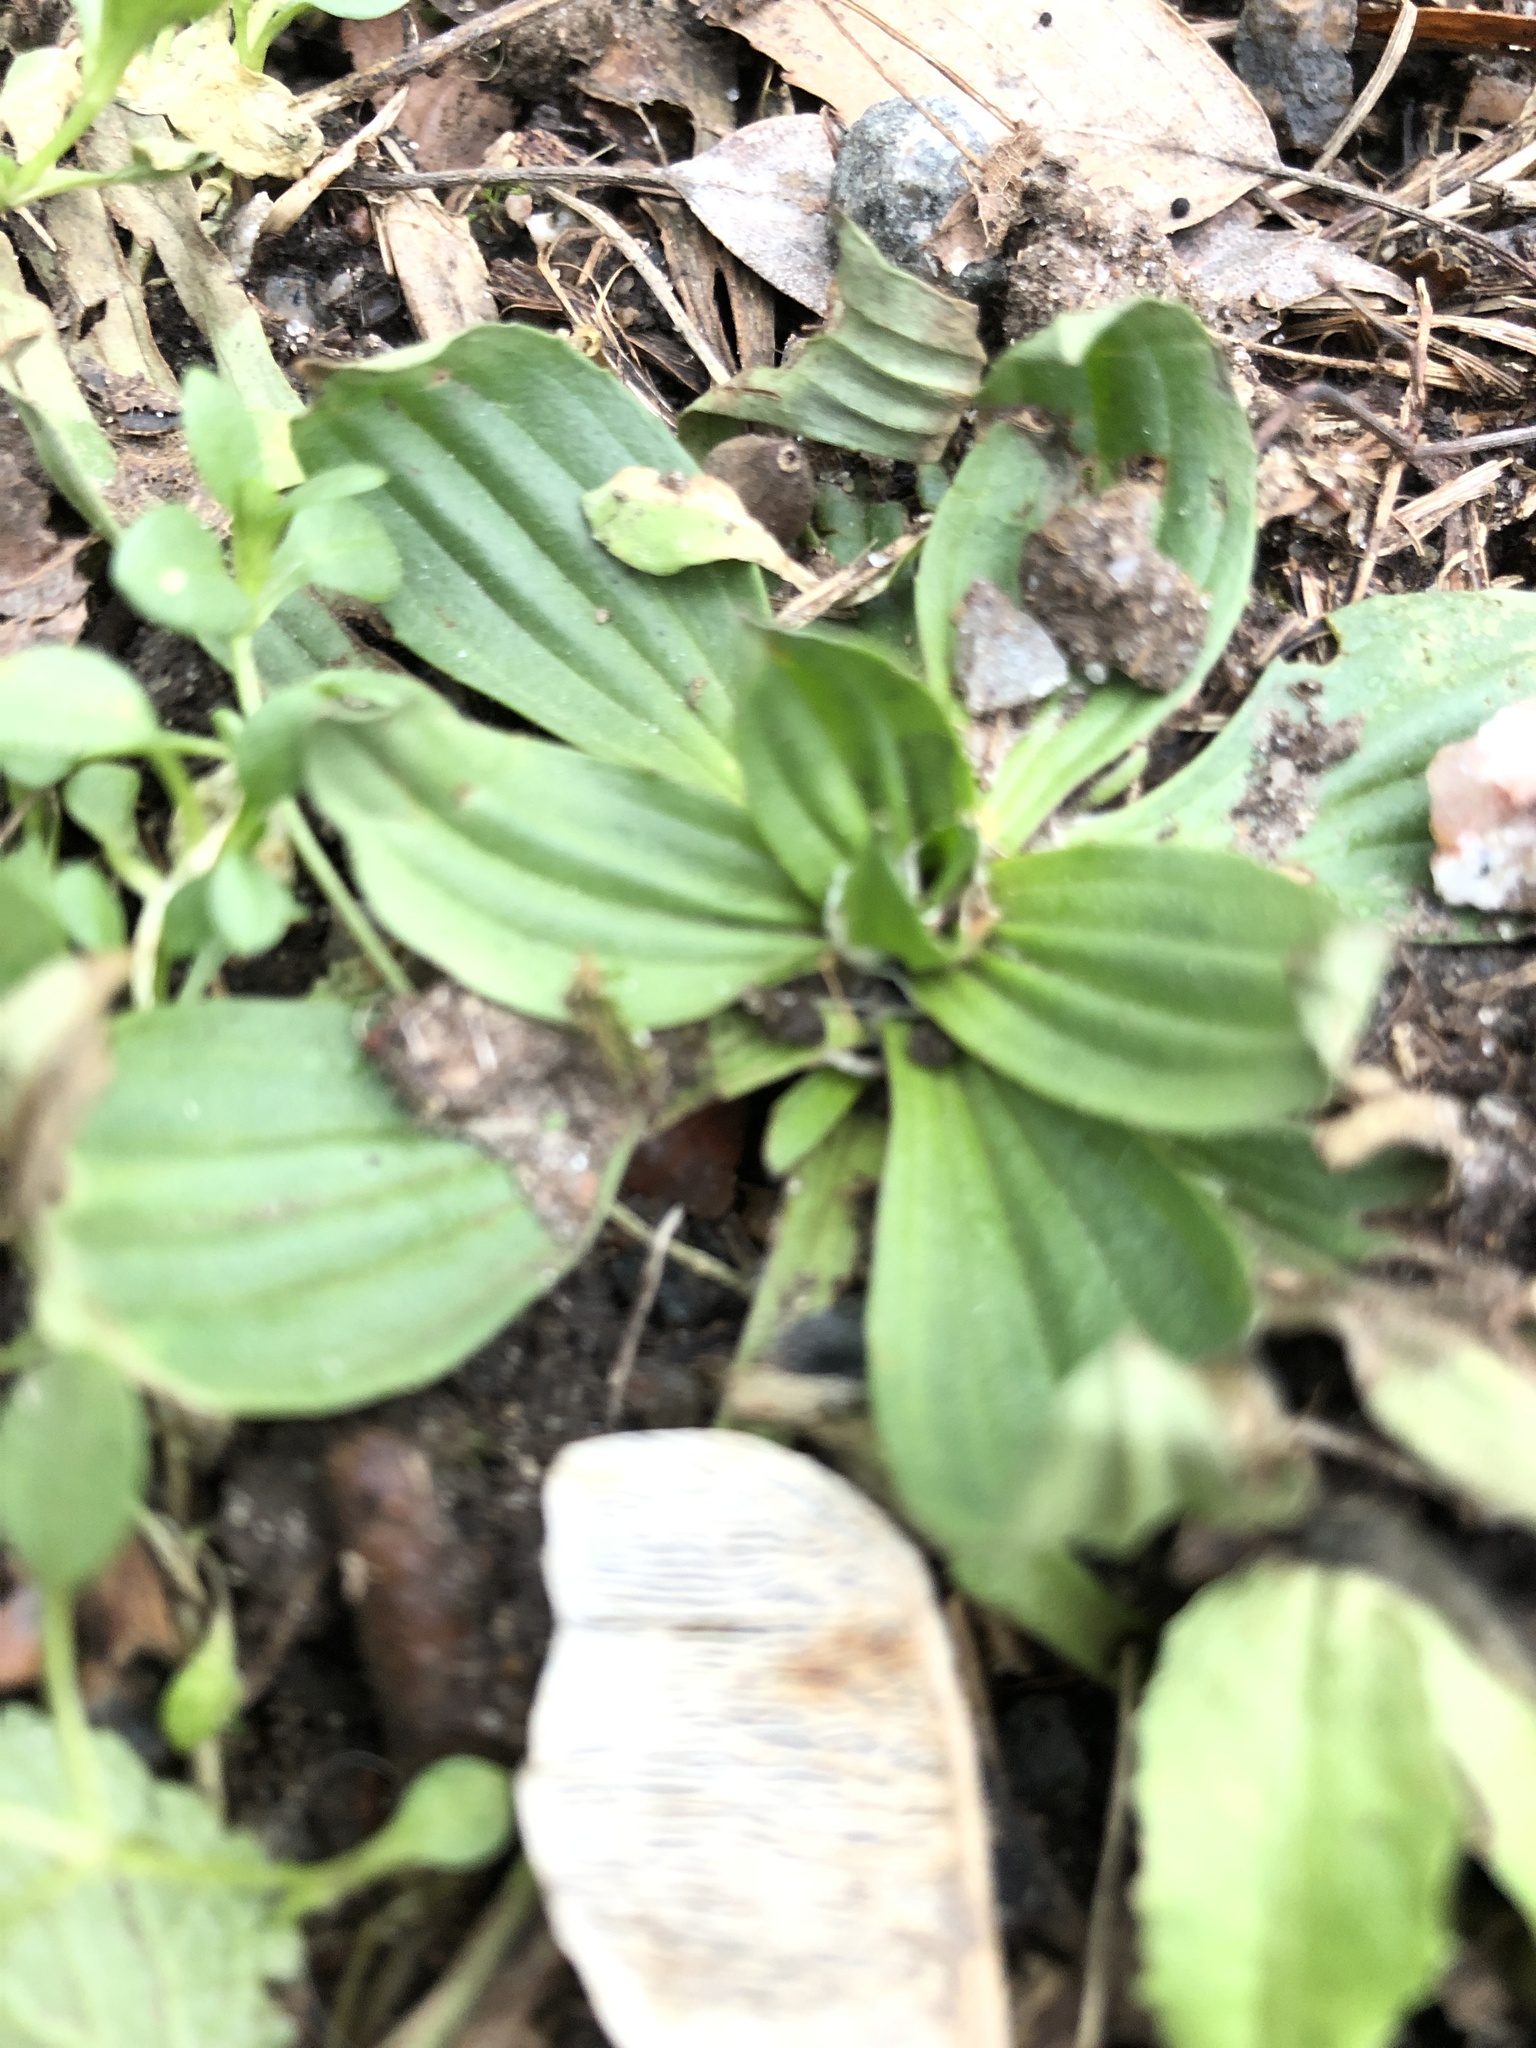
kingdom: Plantae
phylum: Tracheophyta
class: Magnoliopsida
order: Lamiales
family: Plantaginaceae
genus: Plantago
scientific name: Plantago media
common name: Hoary plantain
